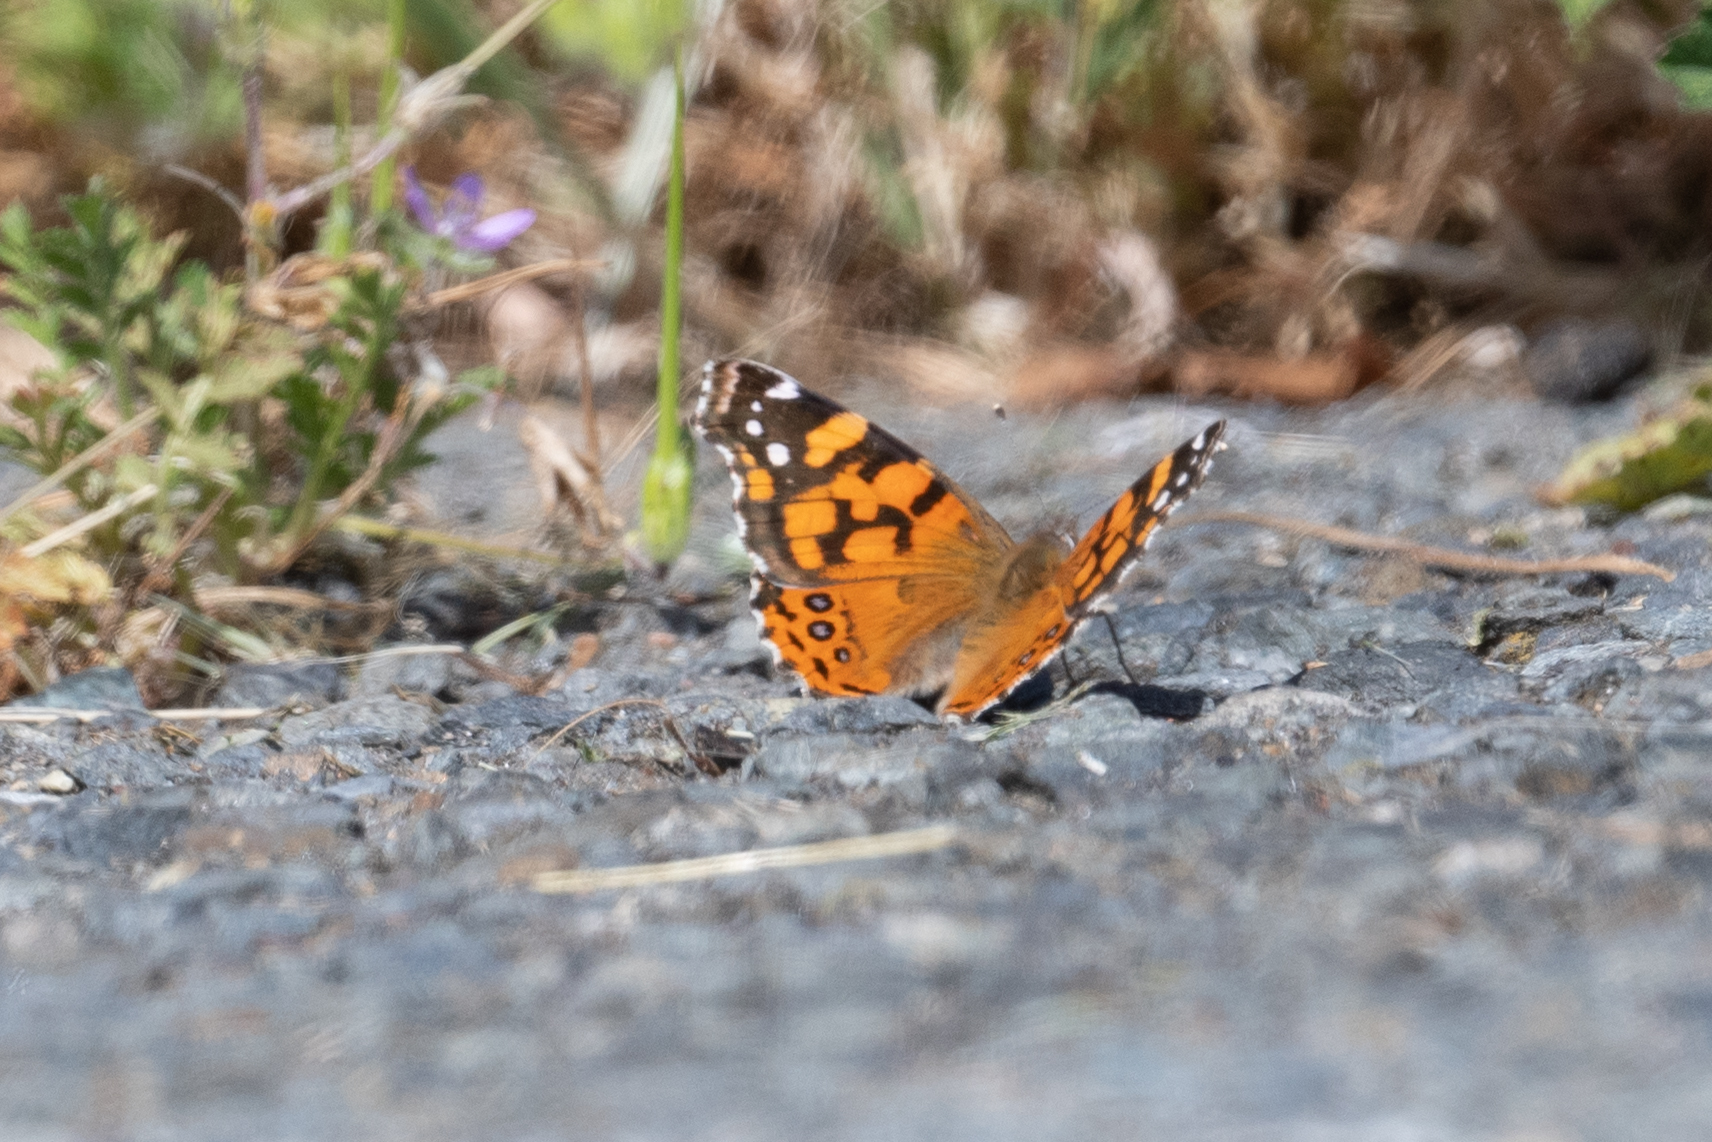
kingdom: Animalia
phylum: Arthropoda
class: Insecta
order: Lepidoptera
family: Nymphalidae
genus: Vanessa
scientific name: Vanessa annabella
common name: West coast lady
